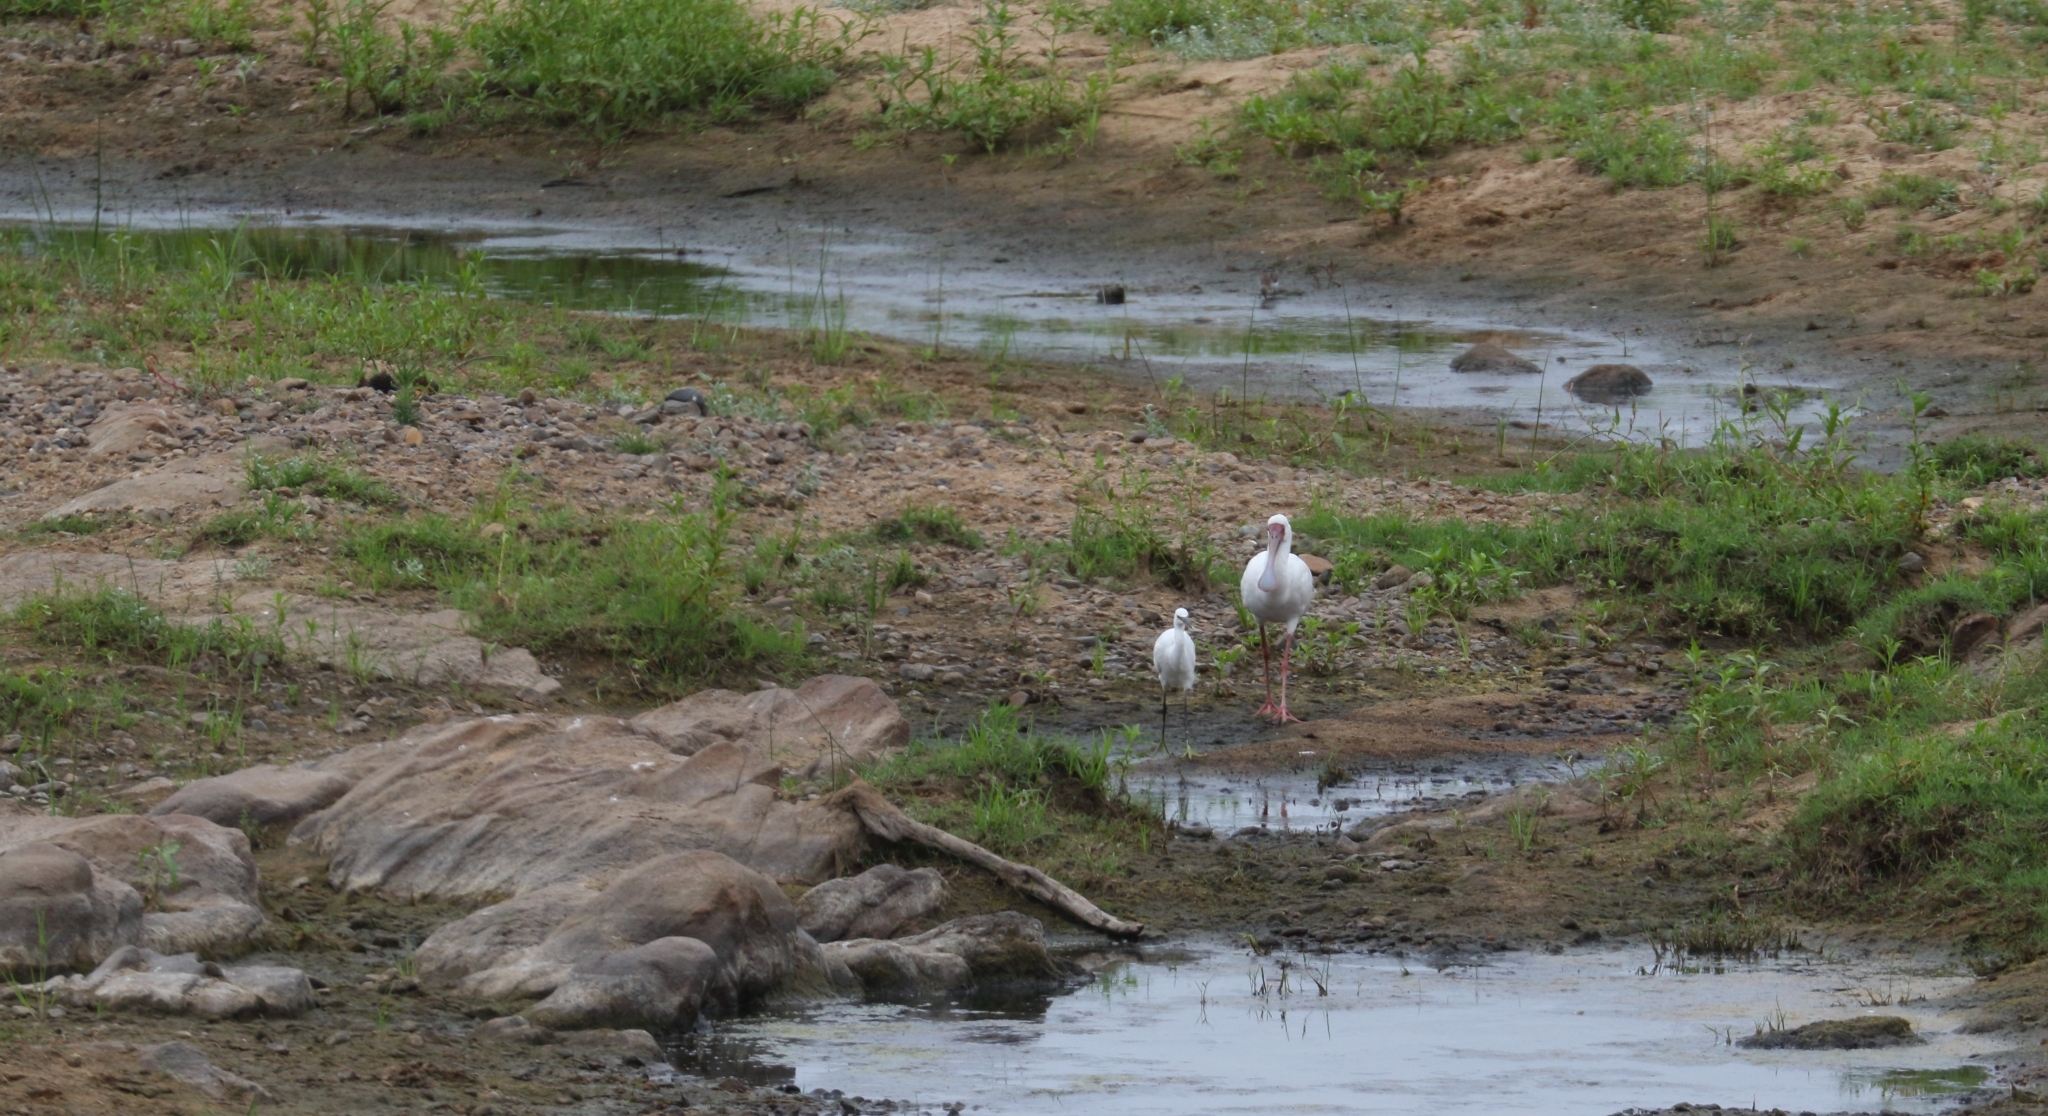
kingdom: Animalia
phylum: Chordata
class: Aves
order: Pelecaniformes
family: Threskiornithidae
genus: Platalea
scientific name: Platalea alba
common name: African spoonbill
